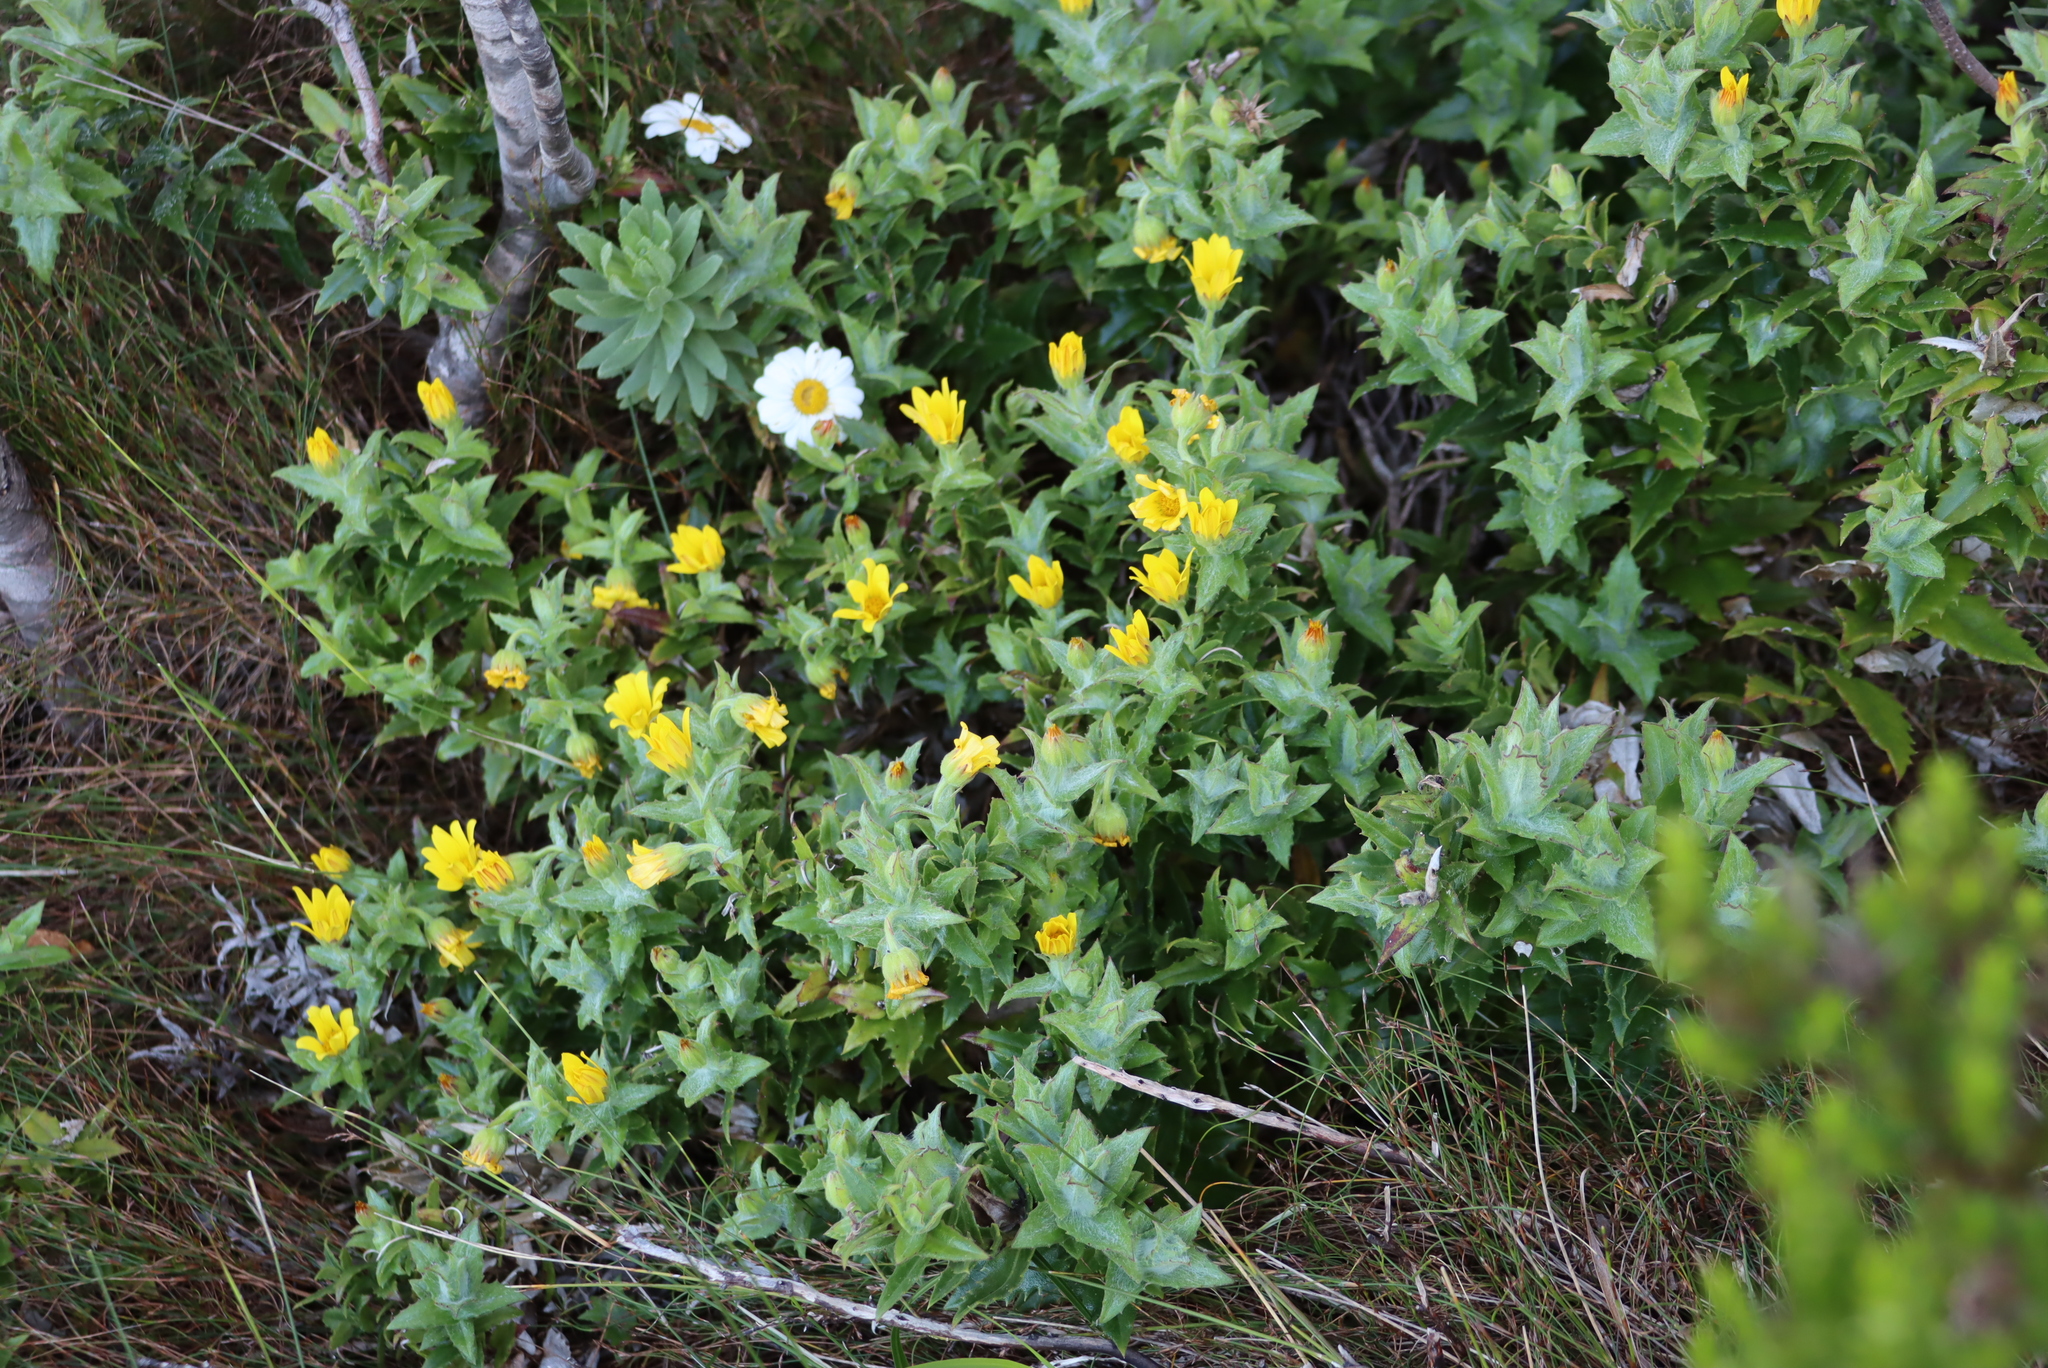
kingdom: Plantae
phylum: Tracheophyta
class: Magnoliopsida
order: Asterales
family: Asteraceae
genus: Osteospermum
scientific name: Osteospermum ilicifolium
